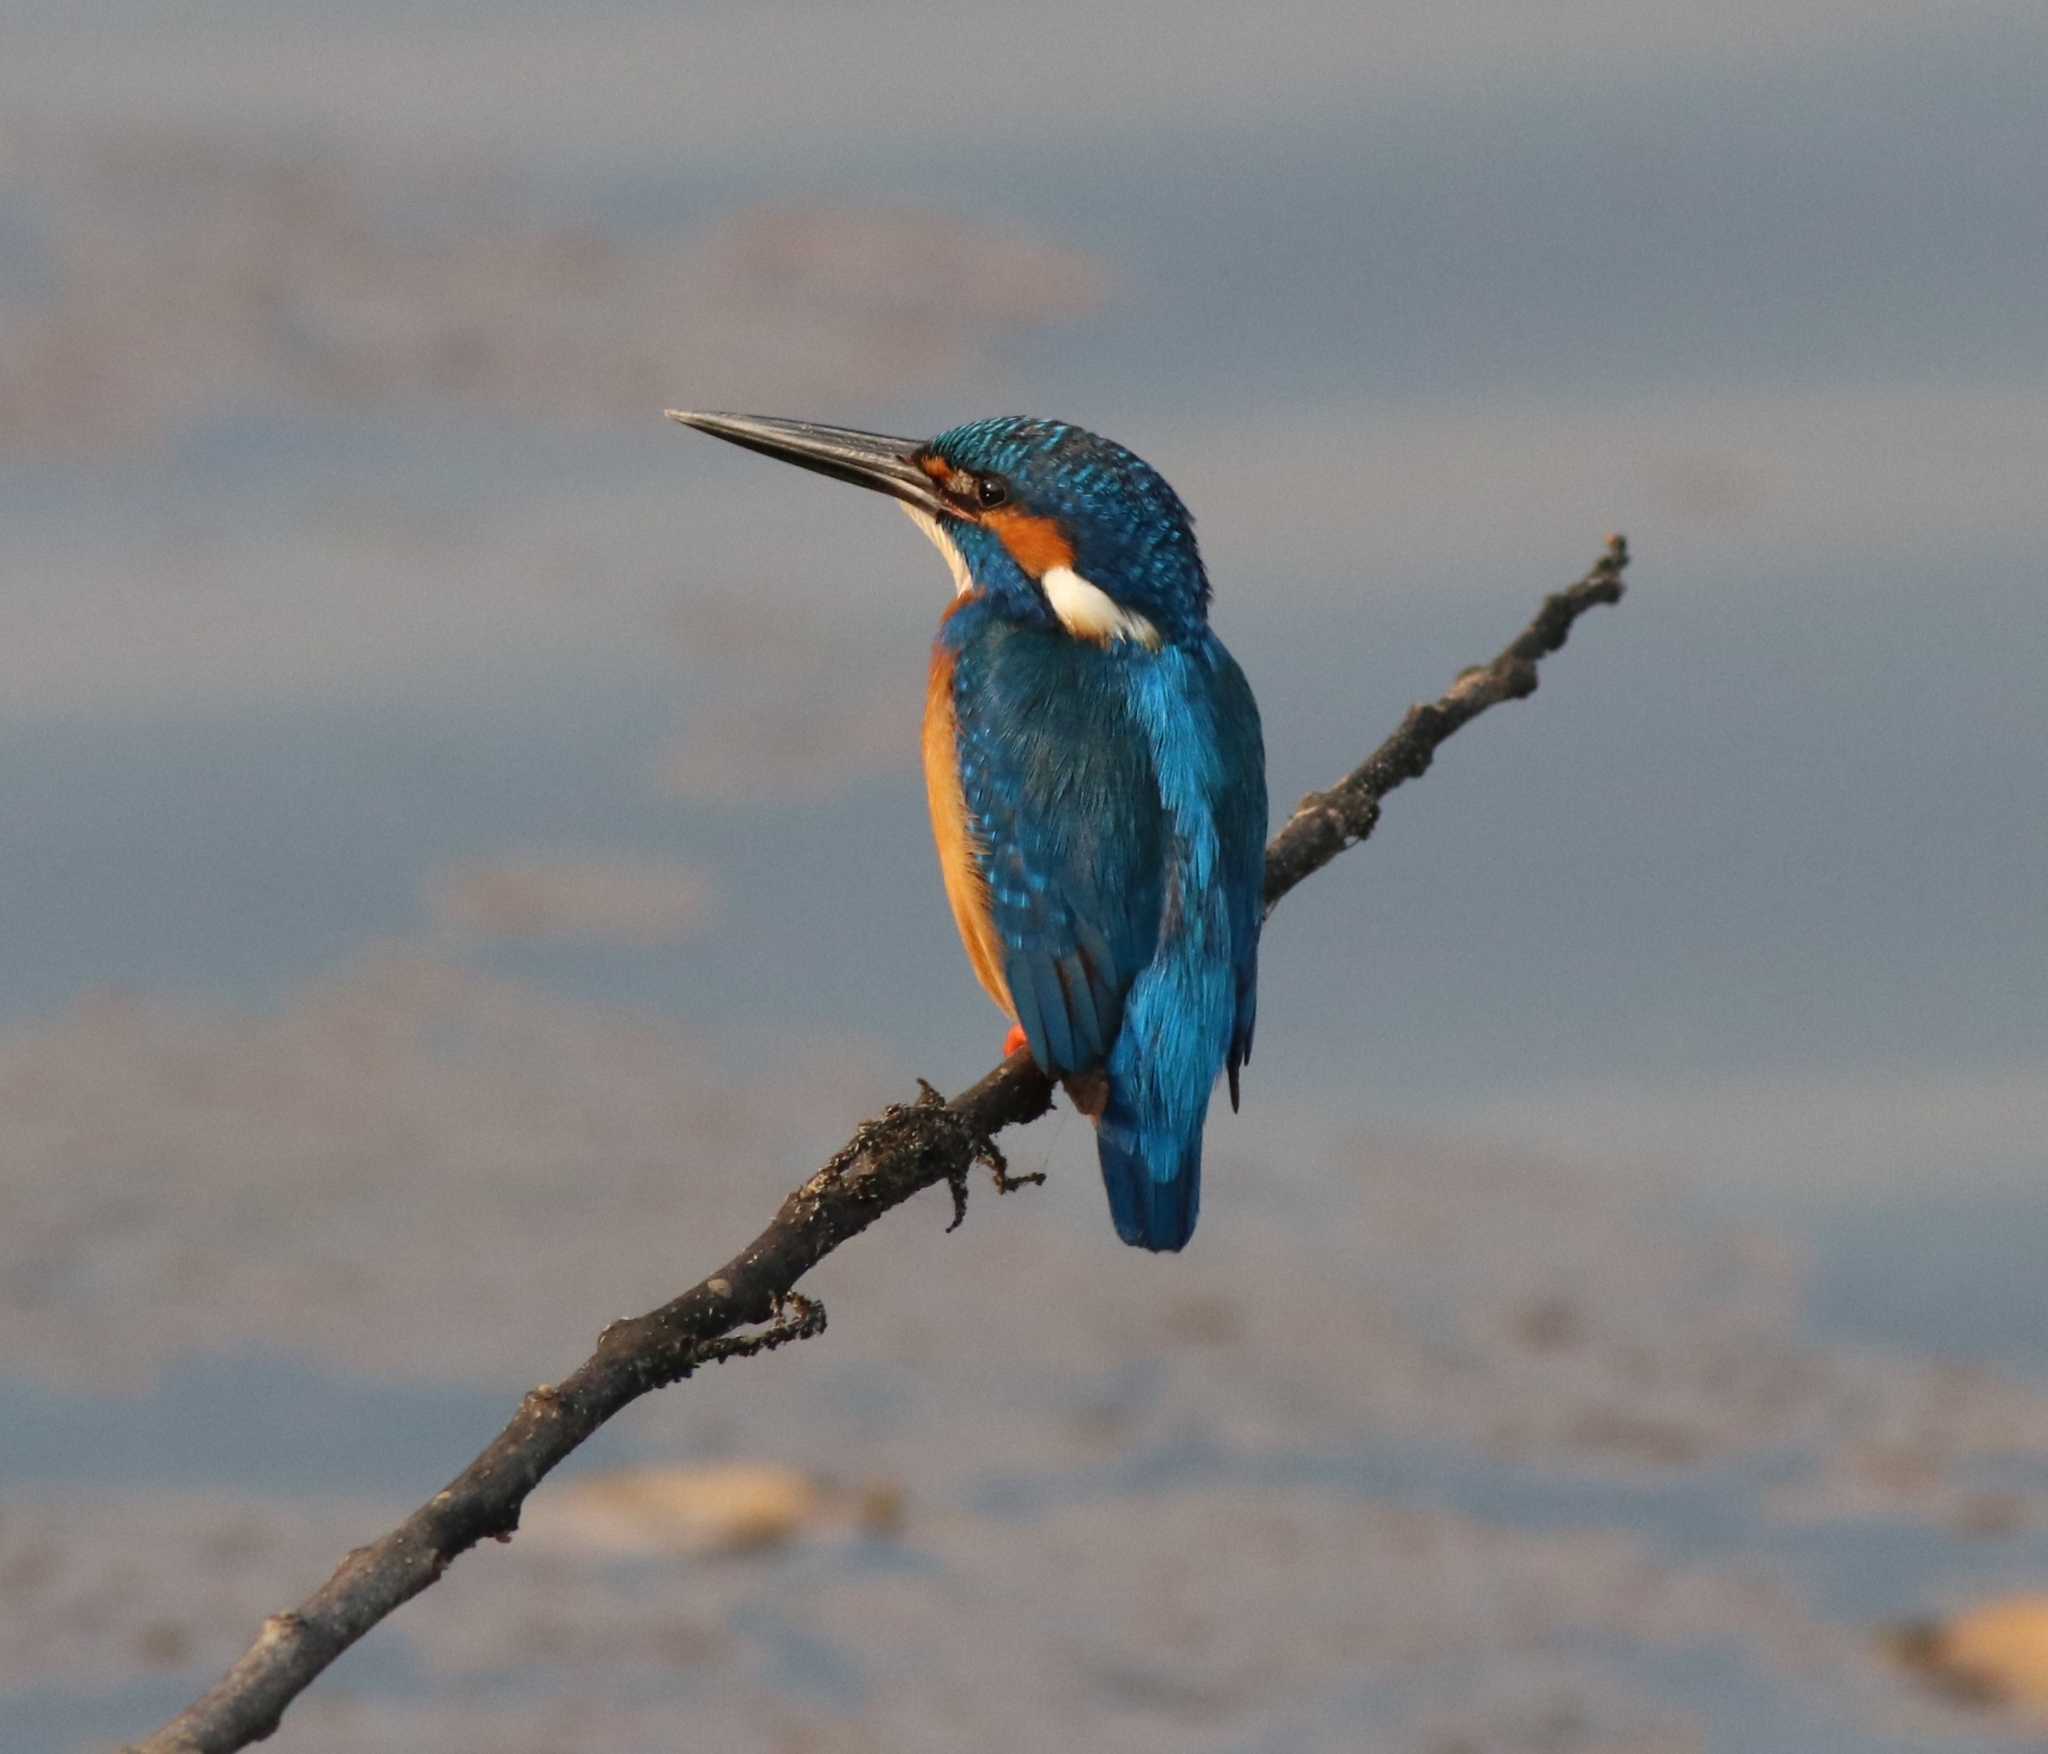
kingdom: Animalia
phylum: Chordata
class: Aves
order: Coraciiformes
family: Alcedinidae
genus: Alcedo
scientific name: Alcedo atthis
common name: Common kingfisher
